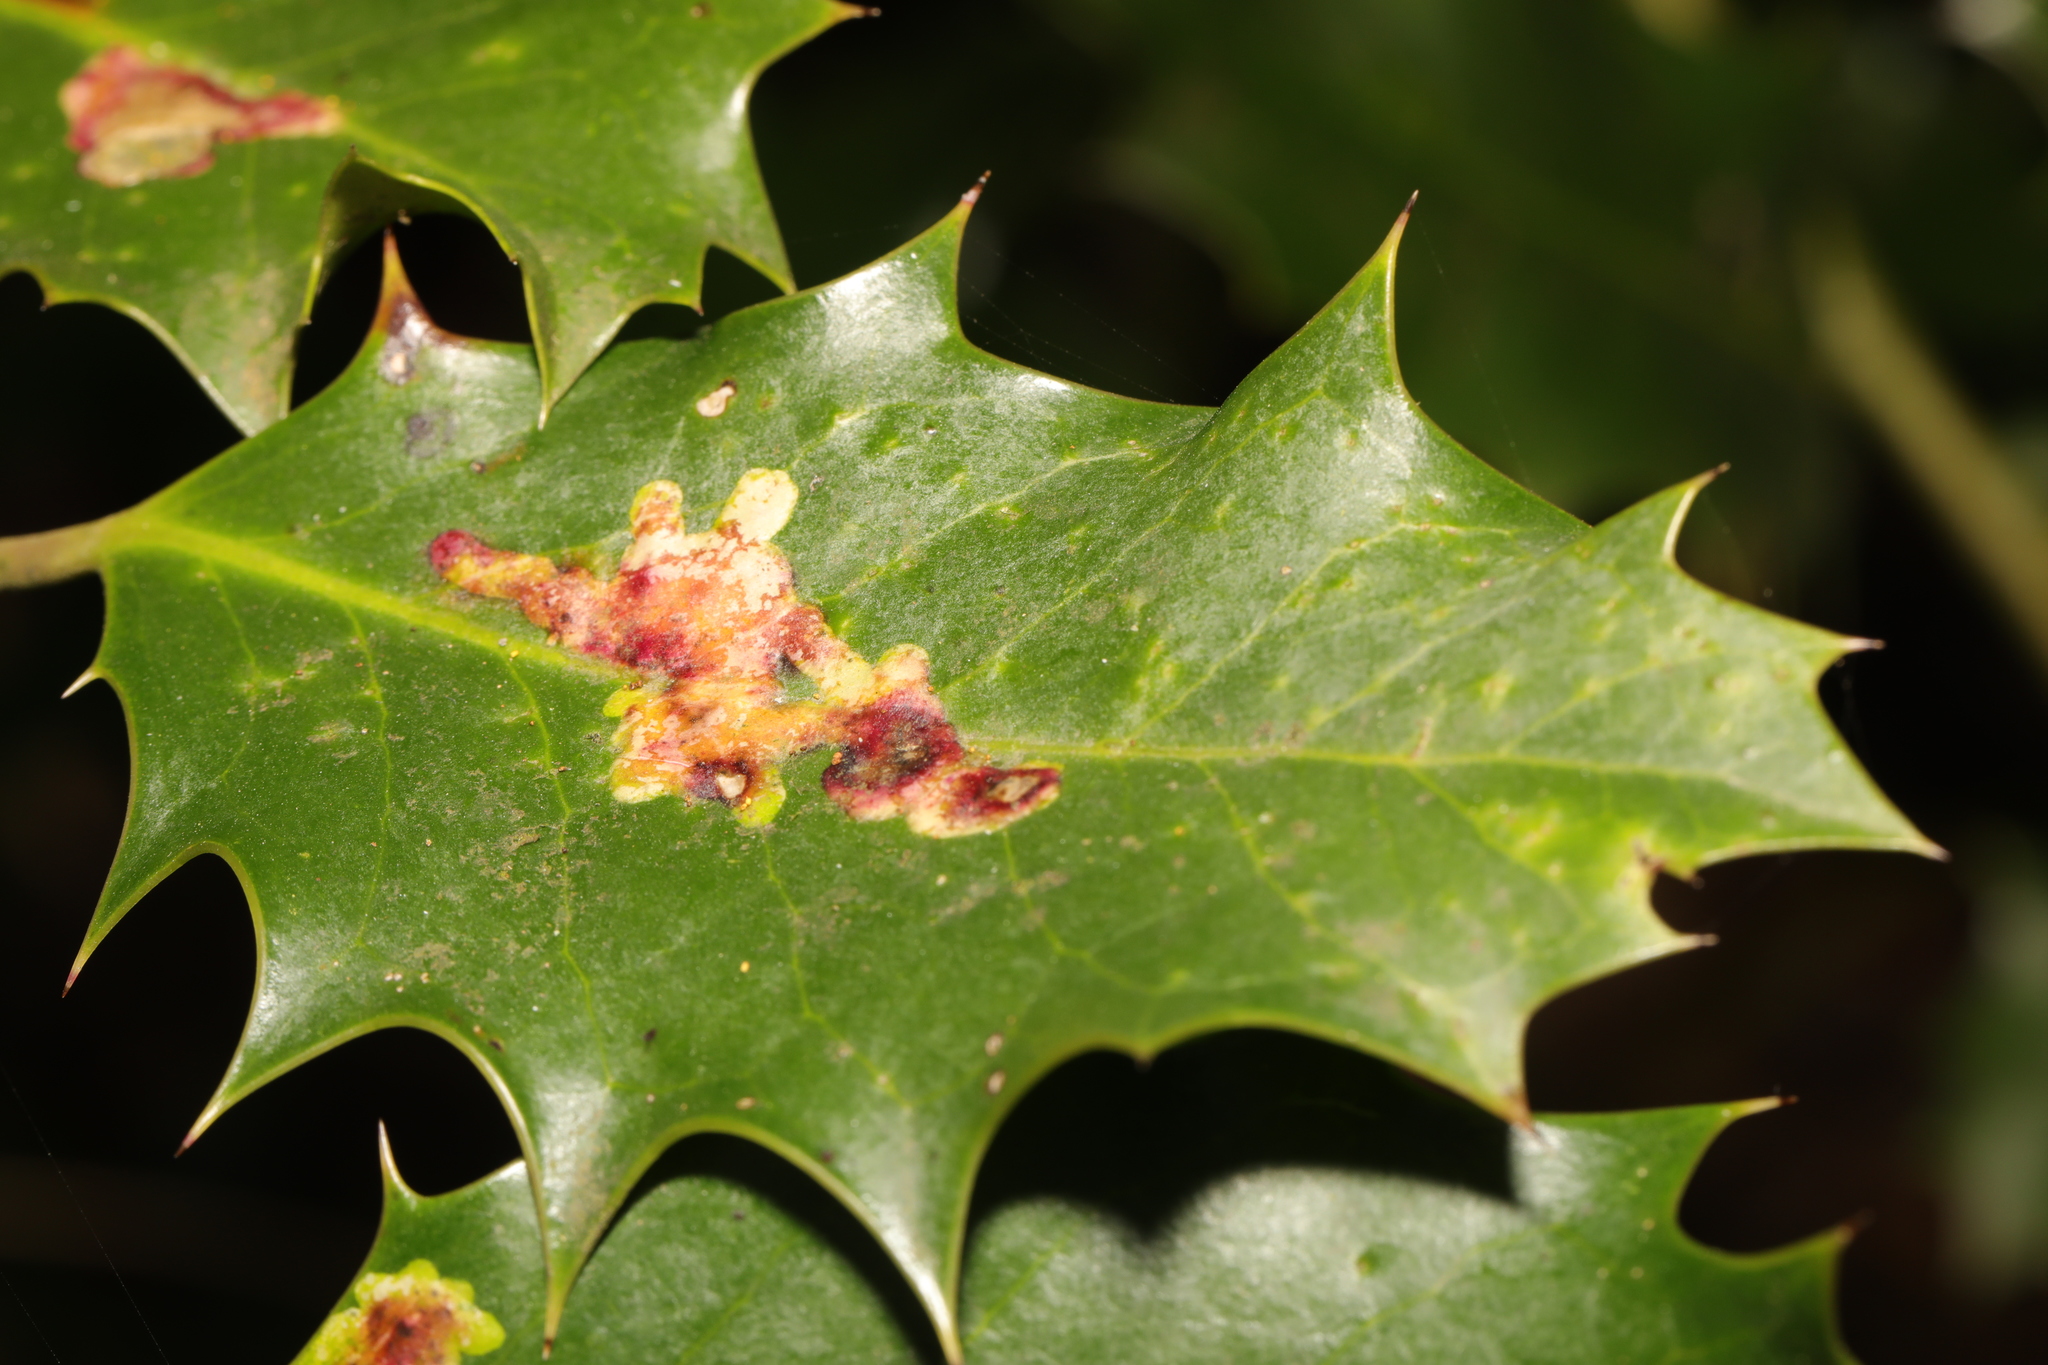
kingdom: Animalia
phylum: Arthropoda
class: Insecta
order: Diptera
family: Agromyzidae
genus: Phytomyza
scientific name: Phytomyza ilicis
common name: Holly leafminer
